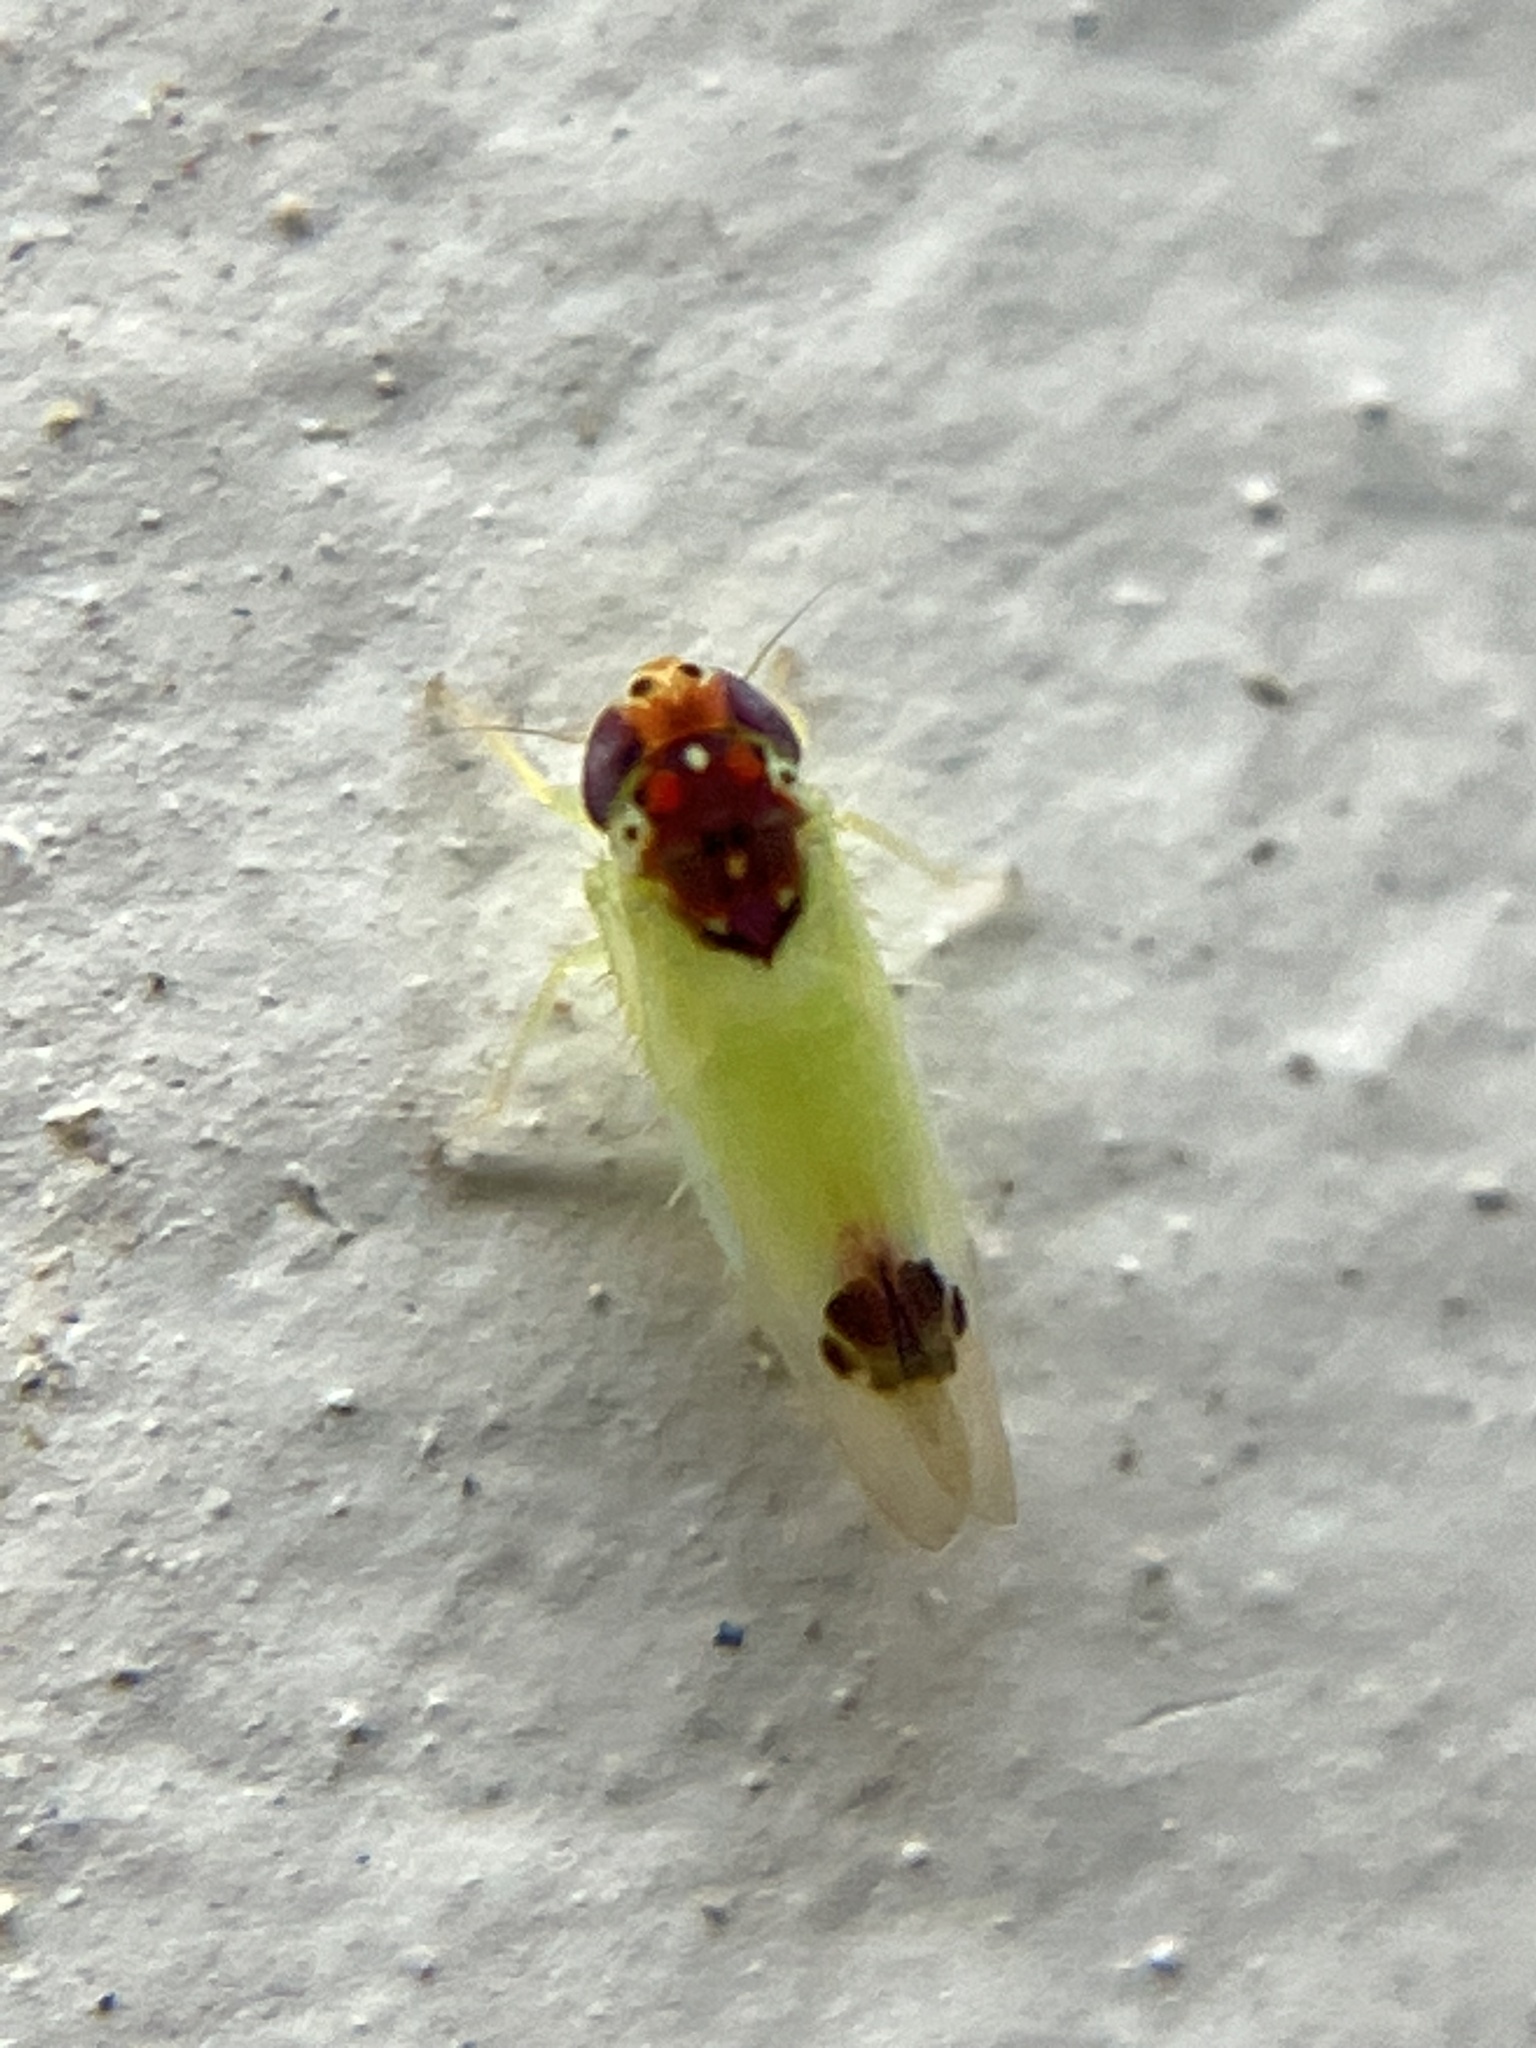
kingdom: Animalia
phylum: Arthropoda
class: Insecta
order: Hemiptera
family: Cicadellidae
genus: Amrasca
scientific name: Amrasca splendens
